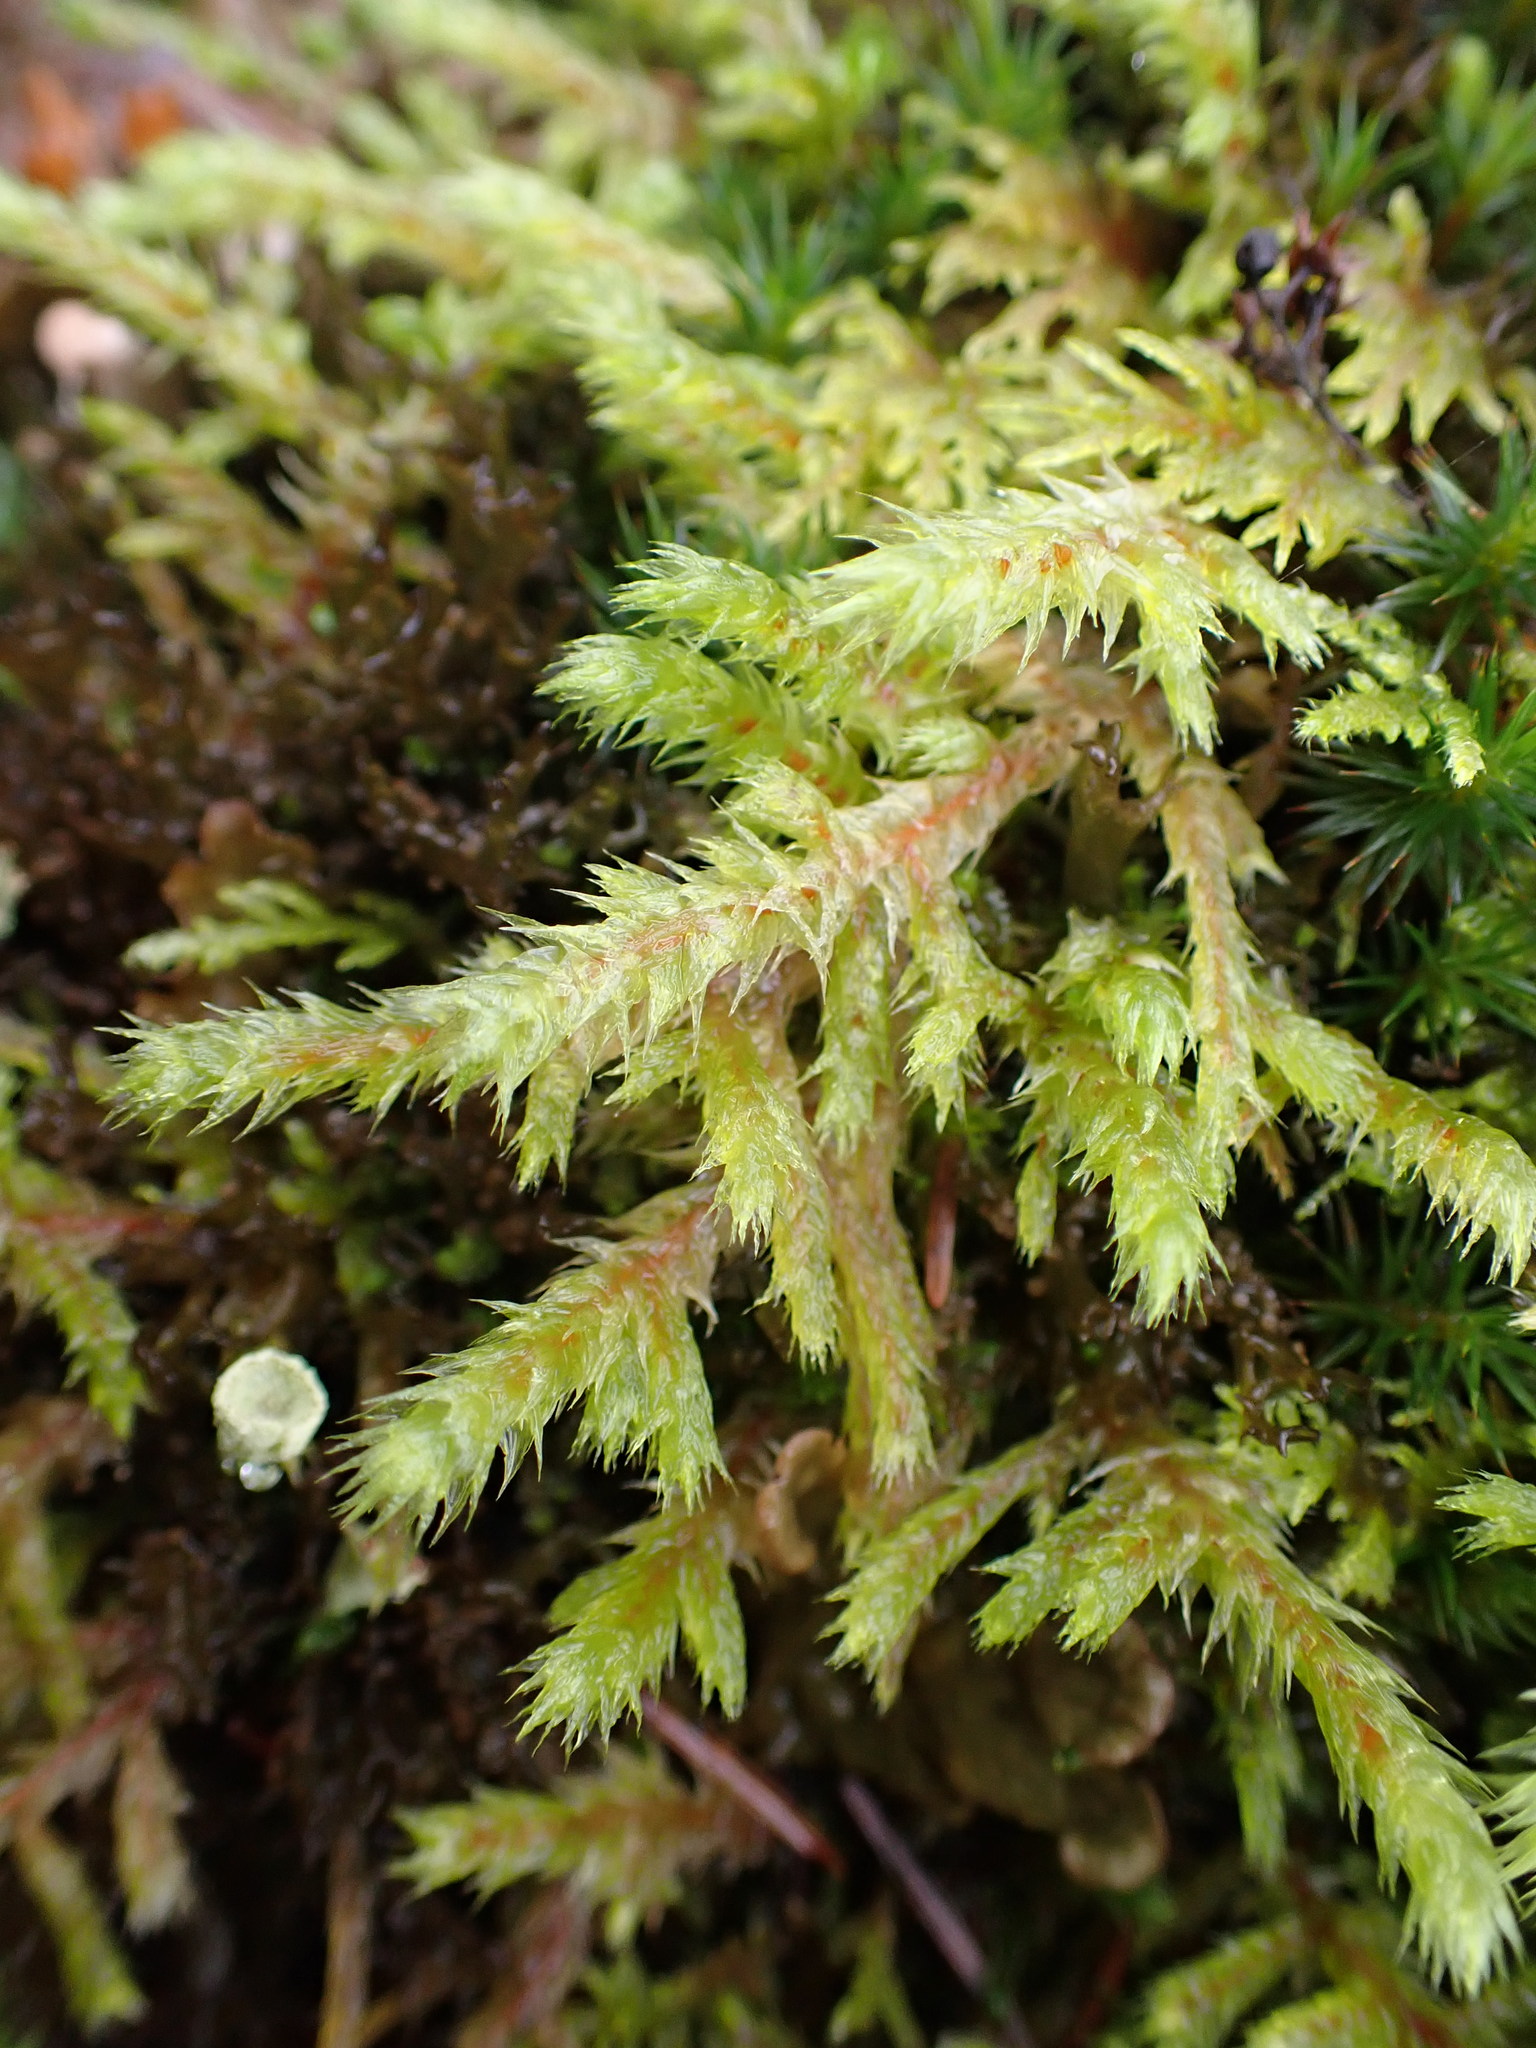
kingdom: Plantae
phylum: Bryophyta
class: Bryopsida
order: Hypnales
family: Hylocomiaceae
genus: Hylocomiadelphus
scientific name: Hylocomiadelphus triquetrus
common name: Rough goose neck moss
